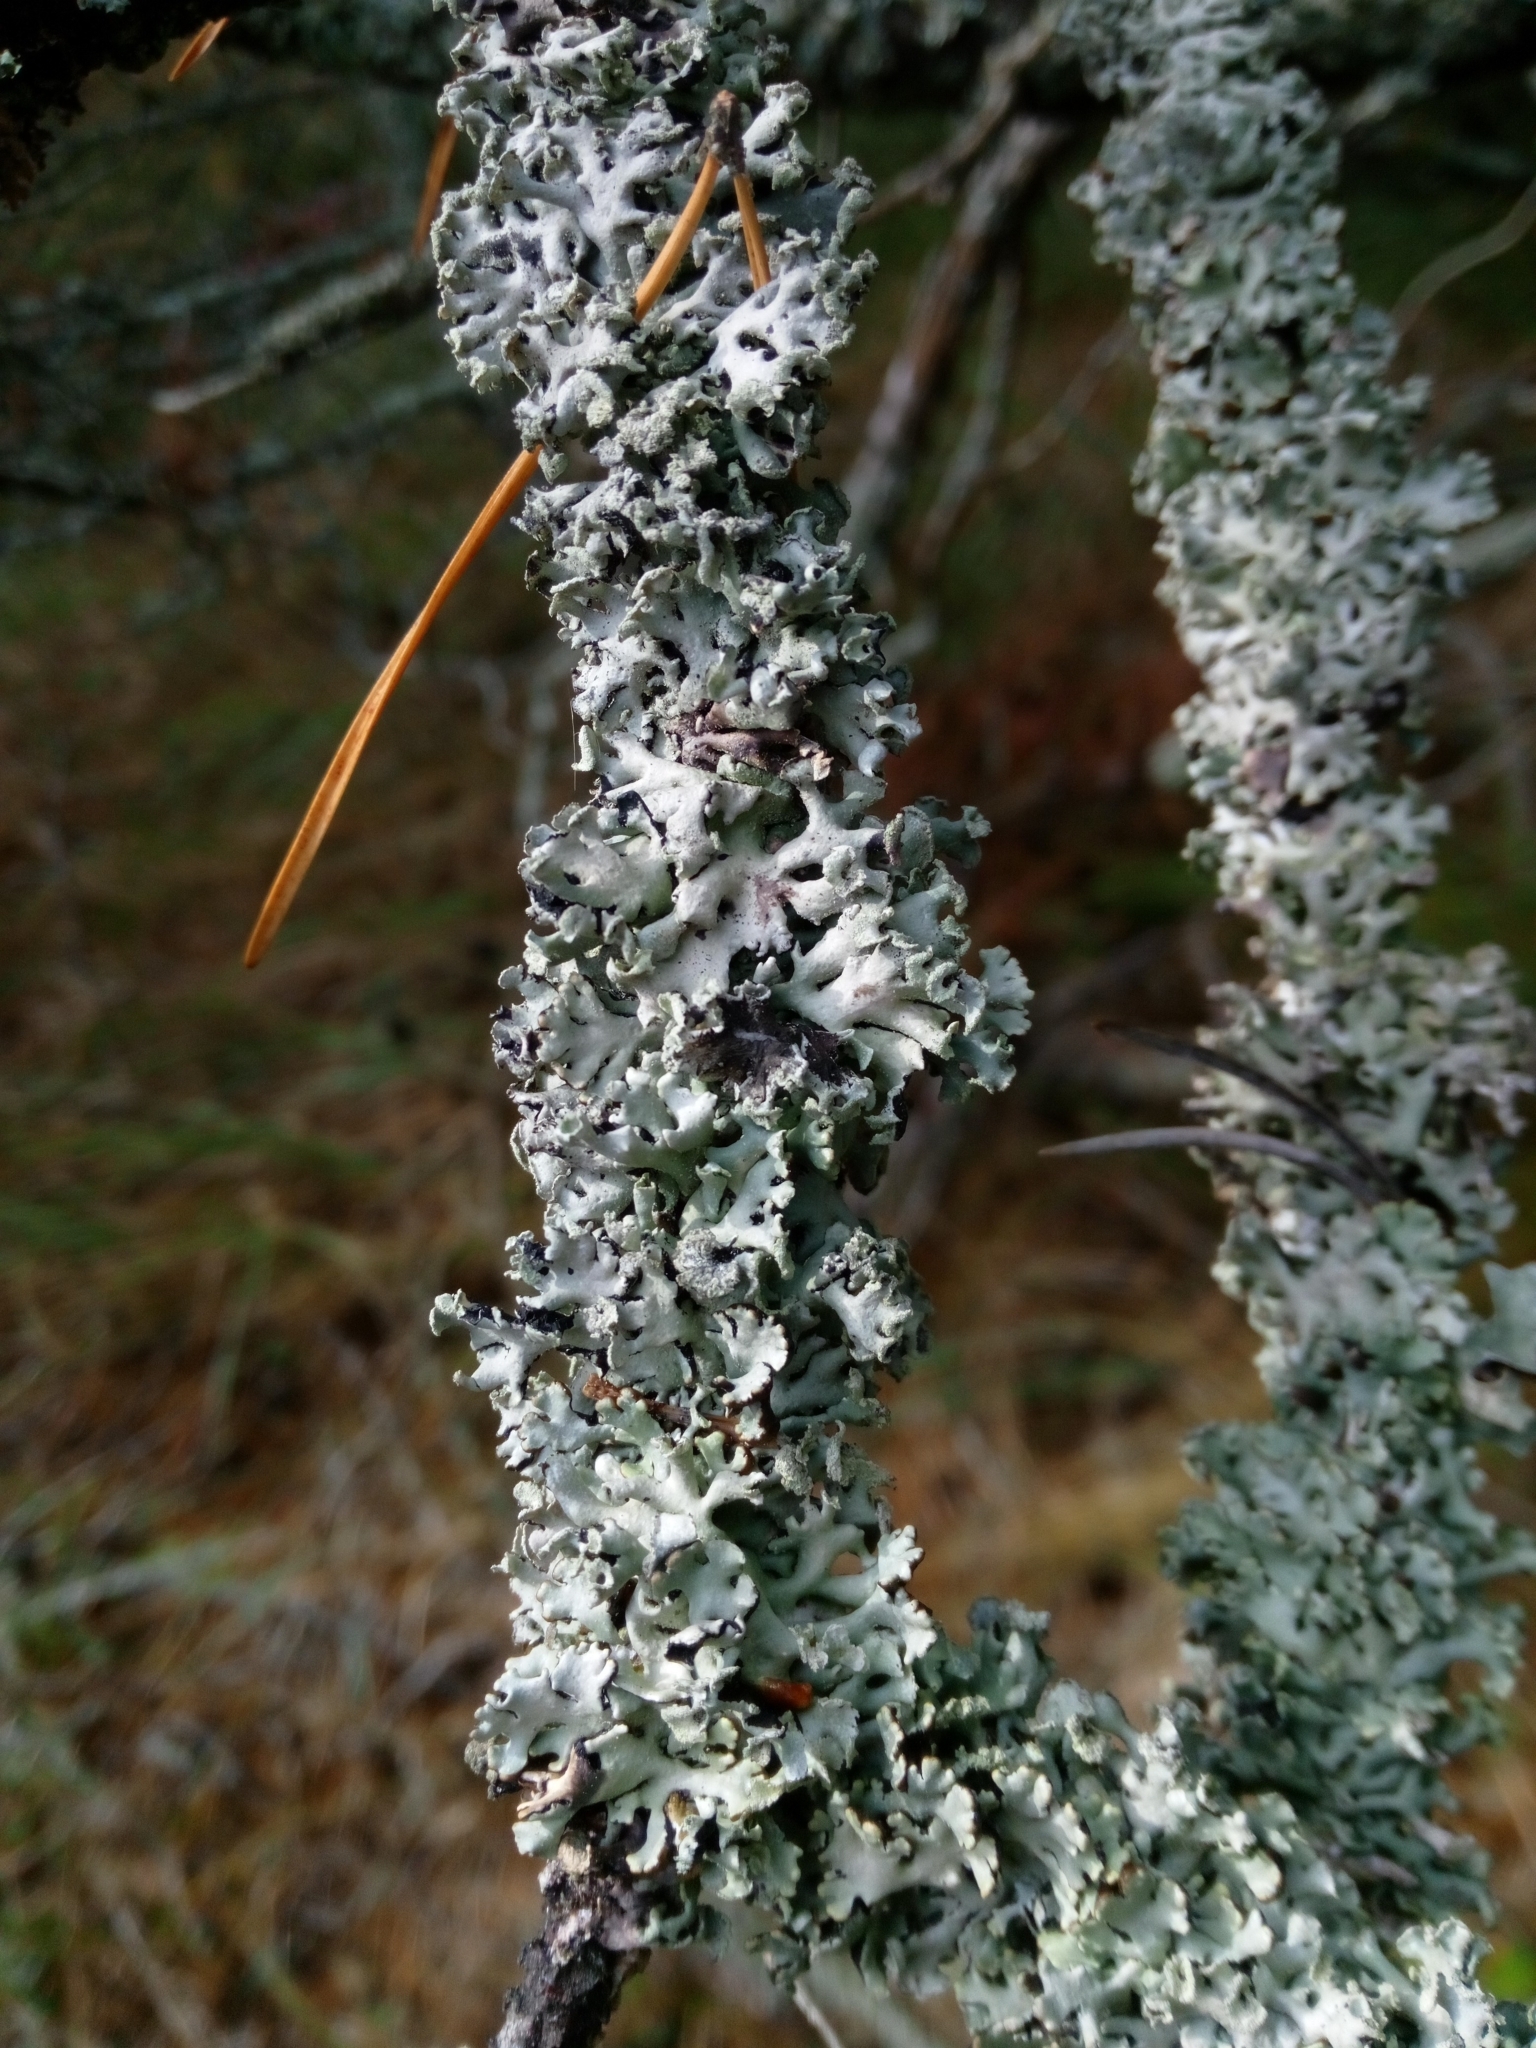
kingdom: Fungi
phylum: Ascomycota
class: Lecanoromycetes
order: Lecanorales
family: Parmeliaceae
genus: Hypogymnia
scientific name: Hypogymnia physodes
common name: Dark crottle
